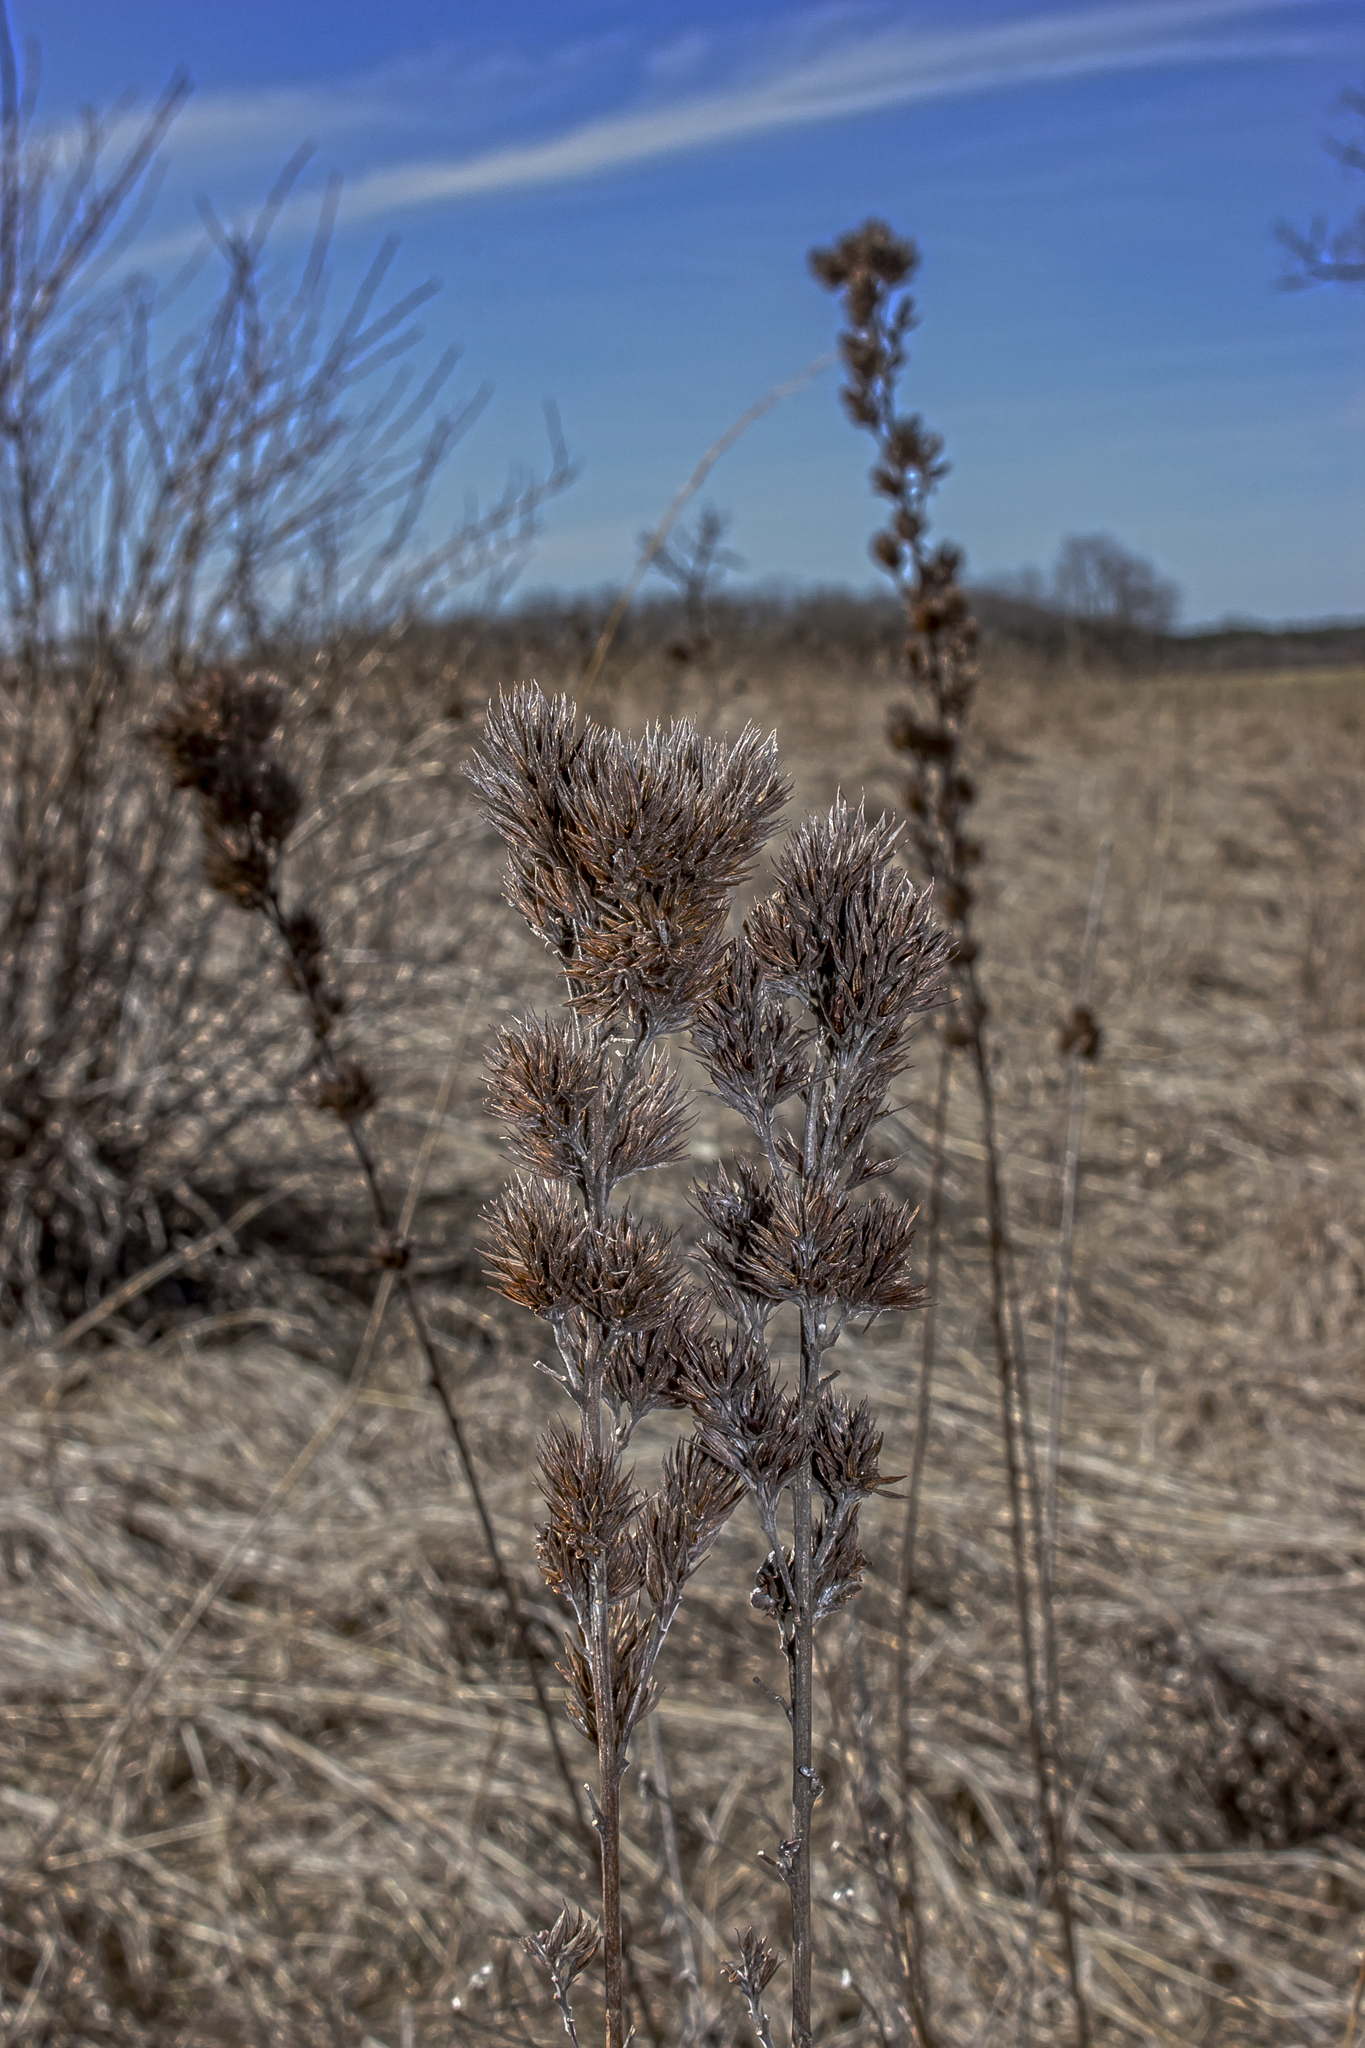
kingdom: Plantae
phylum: Tracheophyta
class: Magnoliopsida
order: Fabales
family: Fabaceae
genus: Lespedeza
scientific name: Lespedeza capitata
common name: Dusty clover
